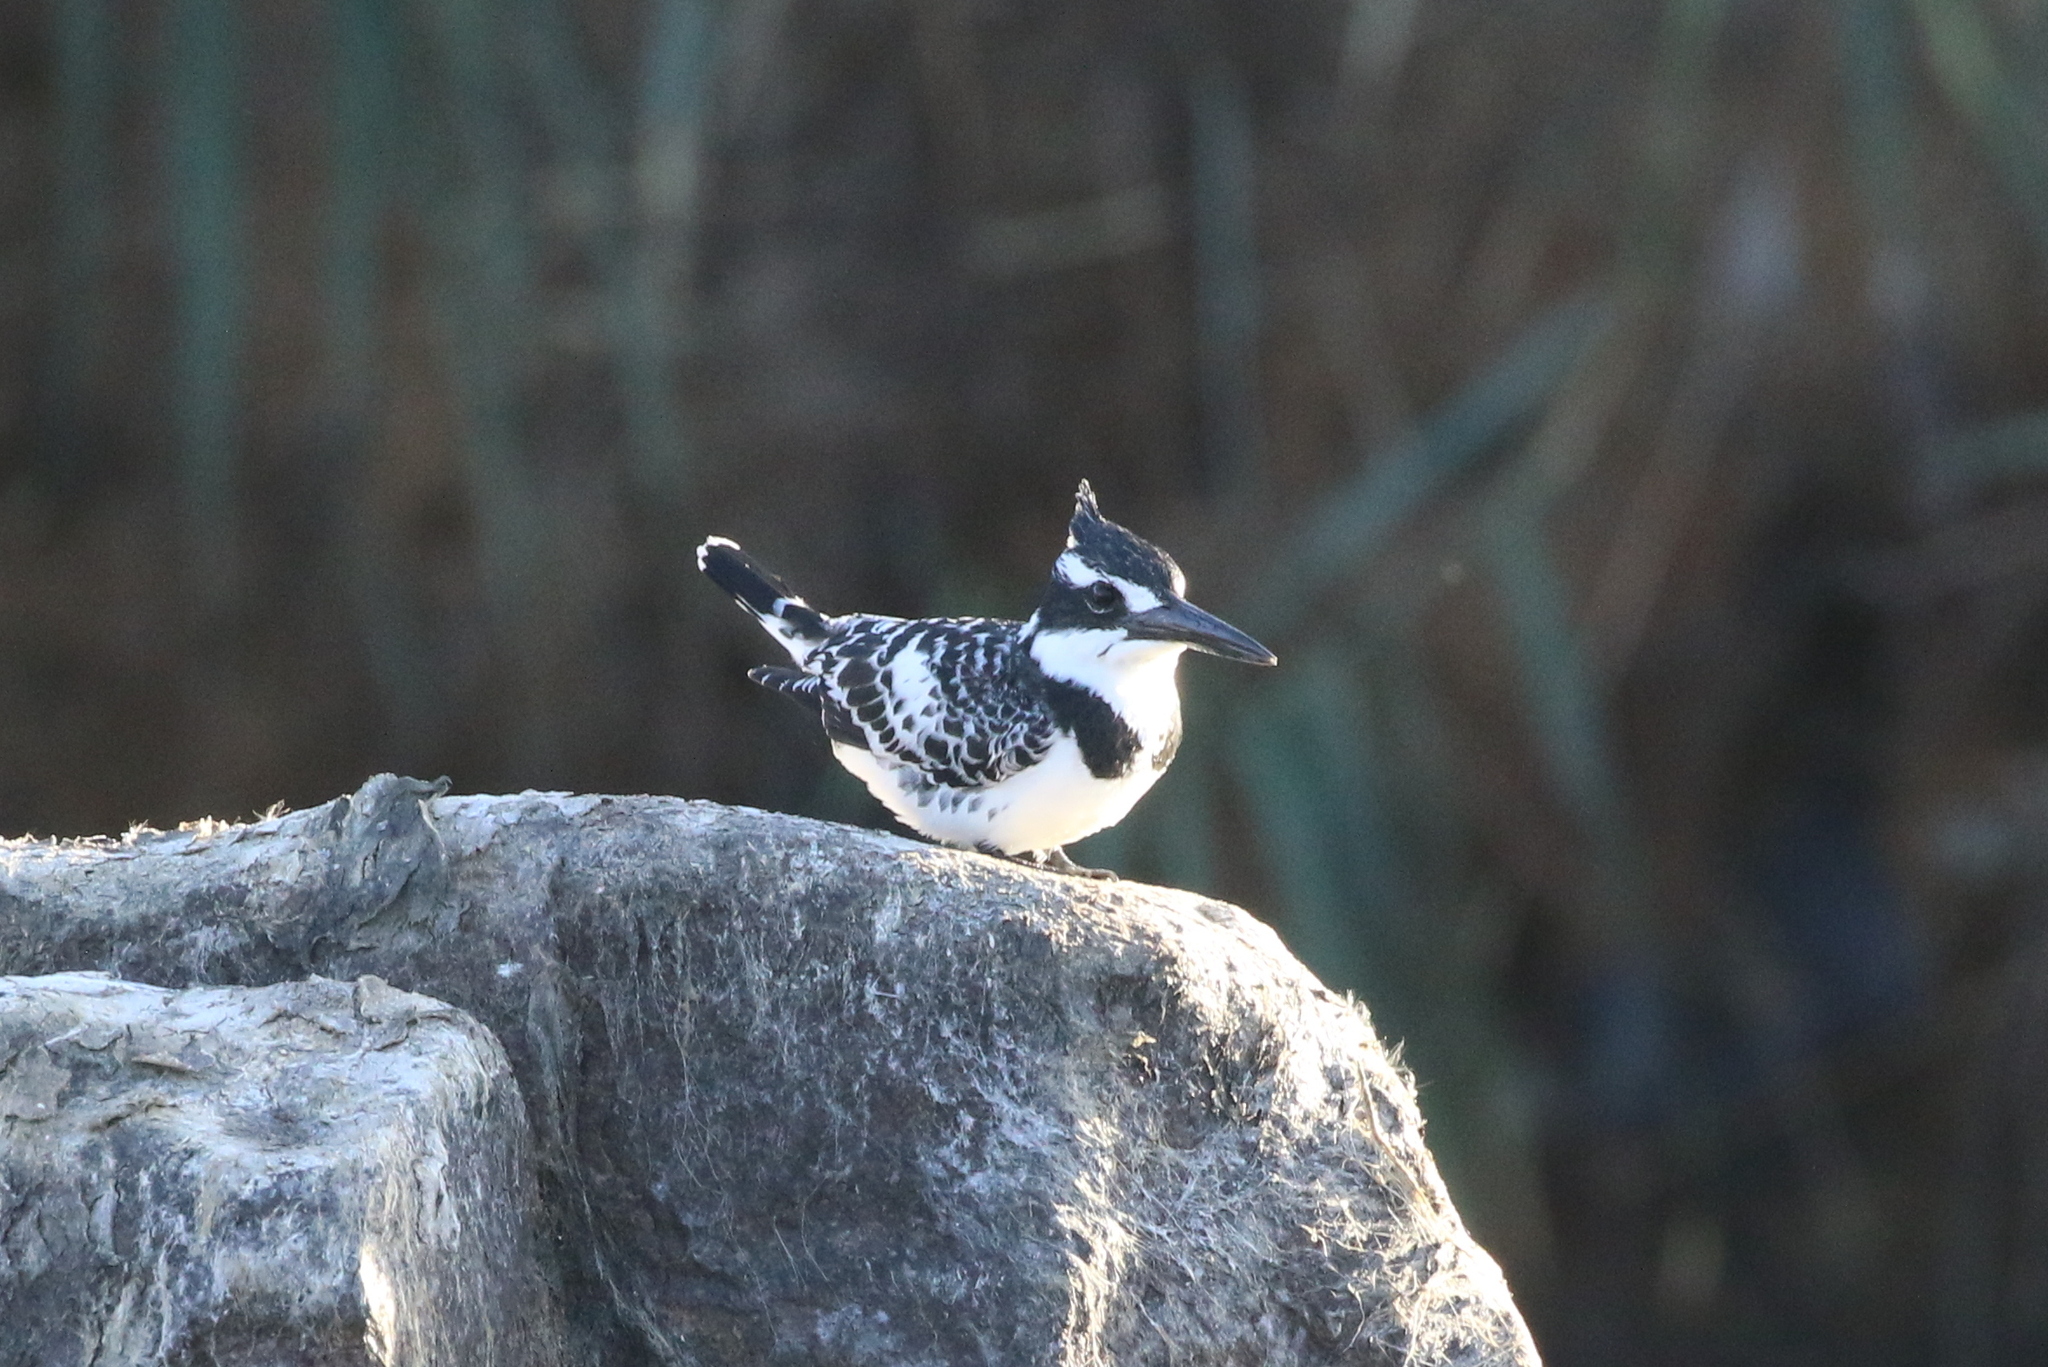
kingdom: Animalia
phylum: Chordata
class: Aves
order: Coraciiformes
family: Alcedinidae
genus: Ceryle
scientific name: Ceryle rudis
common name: Pied kingfisher
